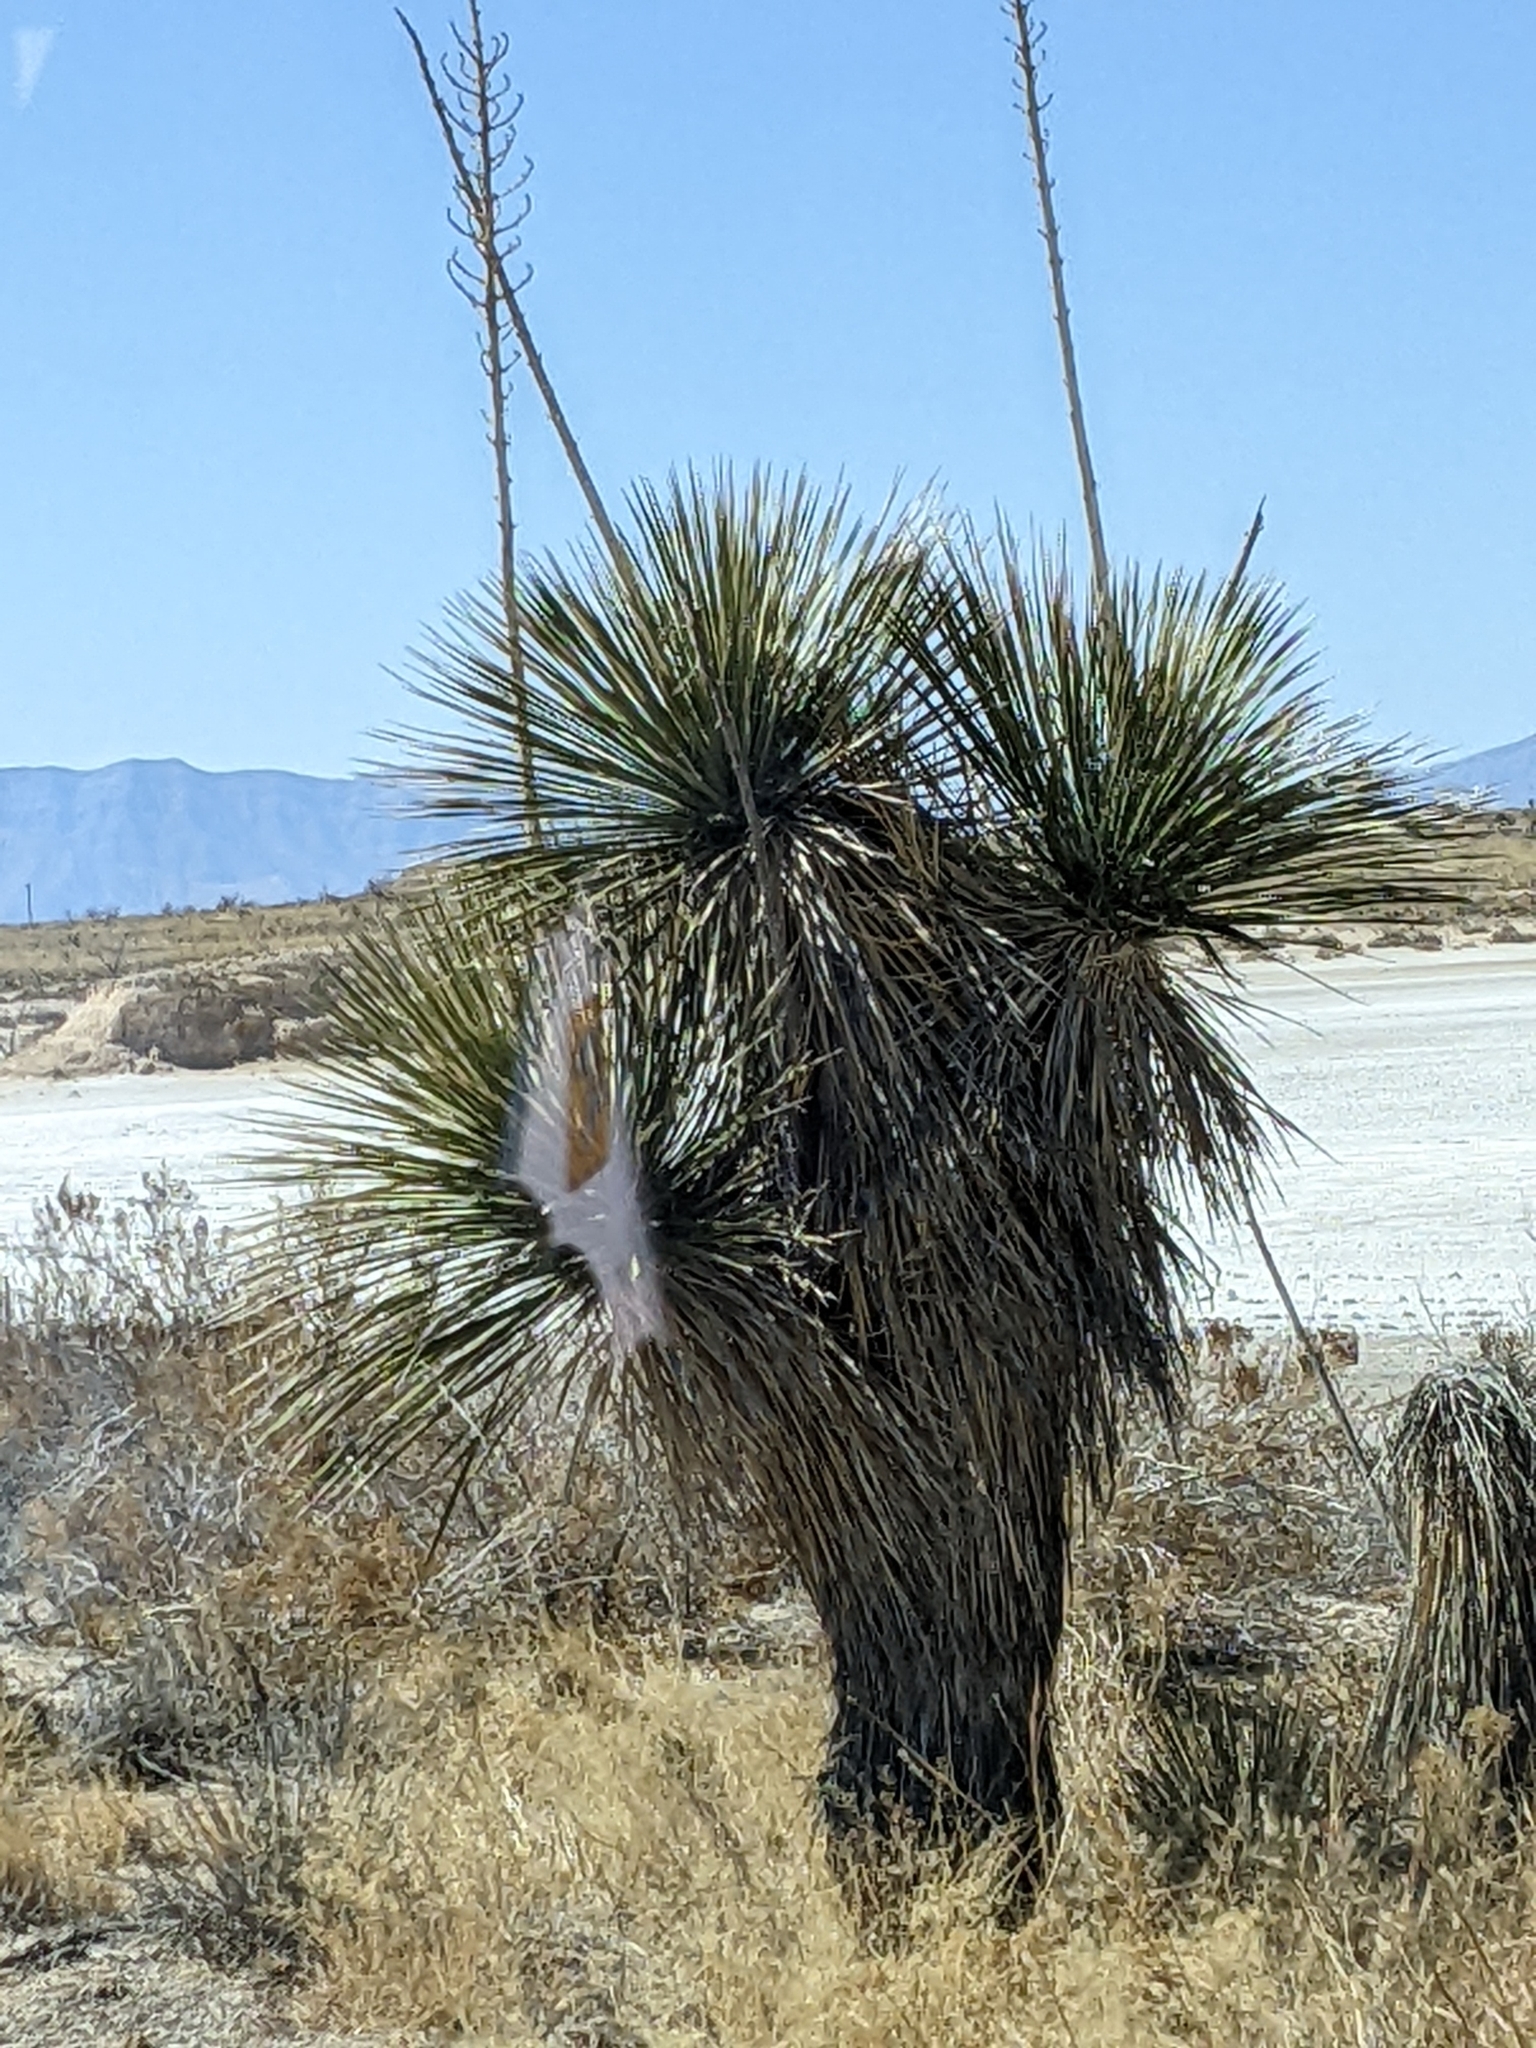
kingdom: Plantae
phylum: Tracheophyta
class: Liliopsida
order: Asparagales
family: Asparagaceae
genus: Yucca
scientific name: Yucca elata
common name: Palmella
